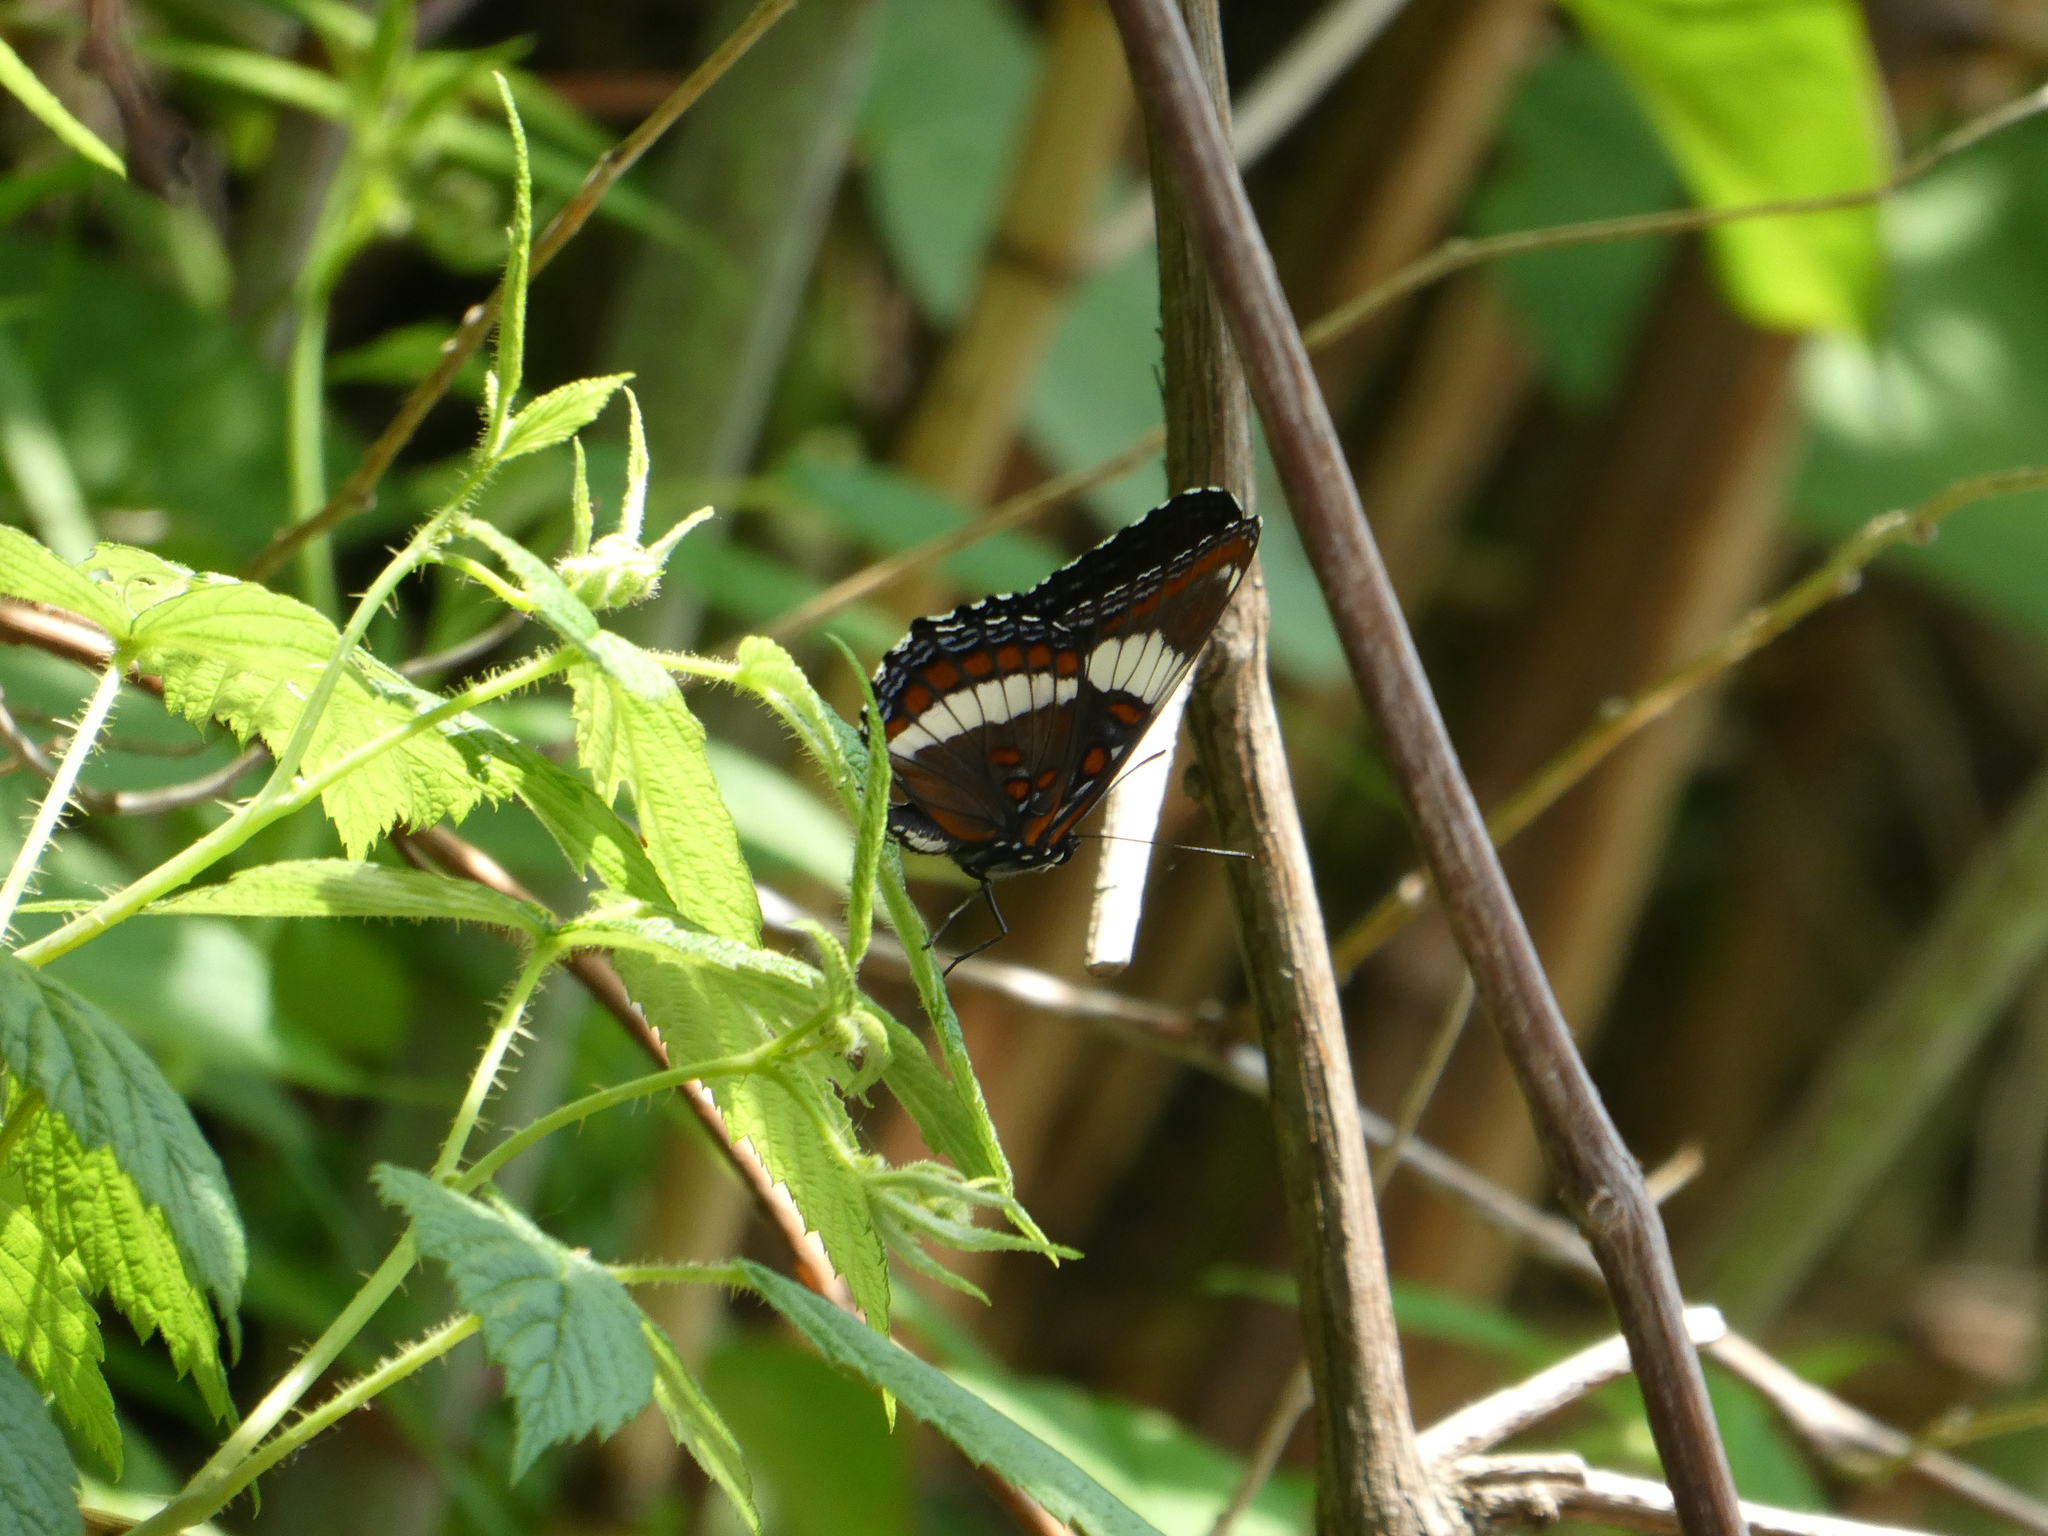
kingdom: Animalia
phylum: Arthropoda
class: Insecta
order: Lepidoptera
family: Nymphalidae
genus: Limenitis
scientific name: Limenitis arthemis
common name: Red-spotted admiral
